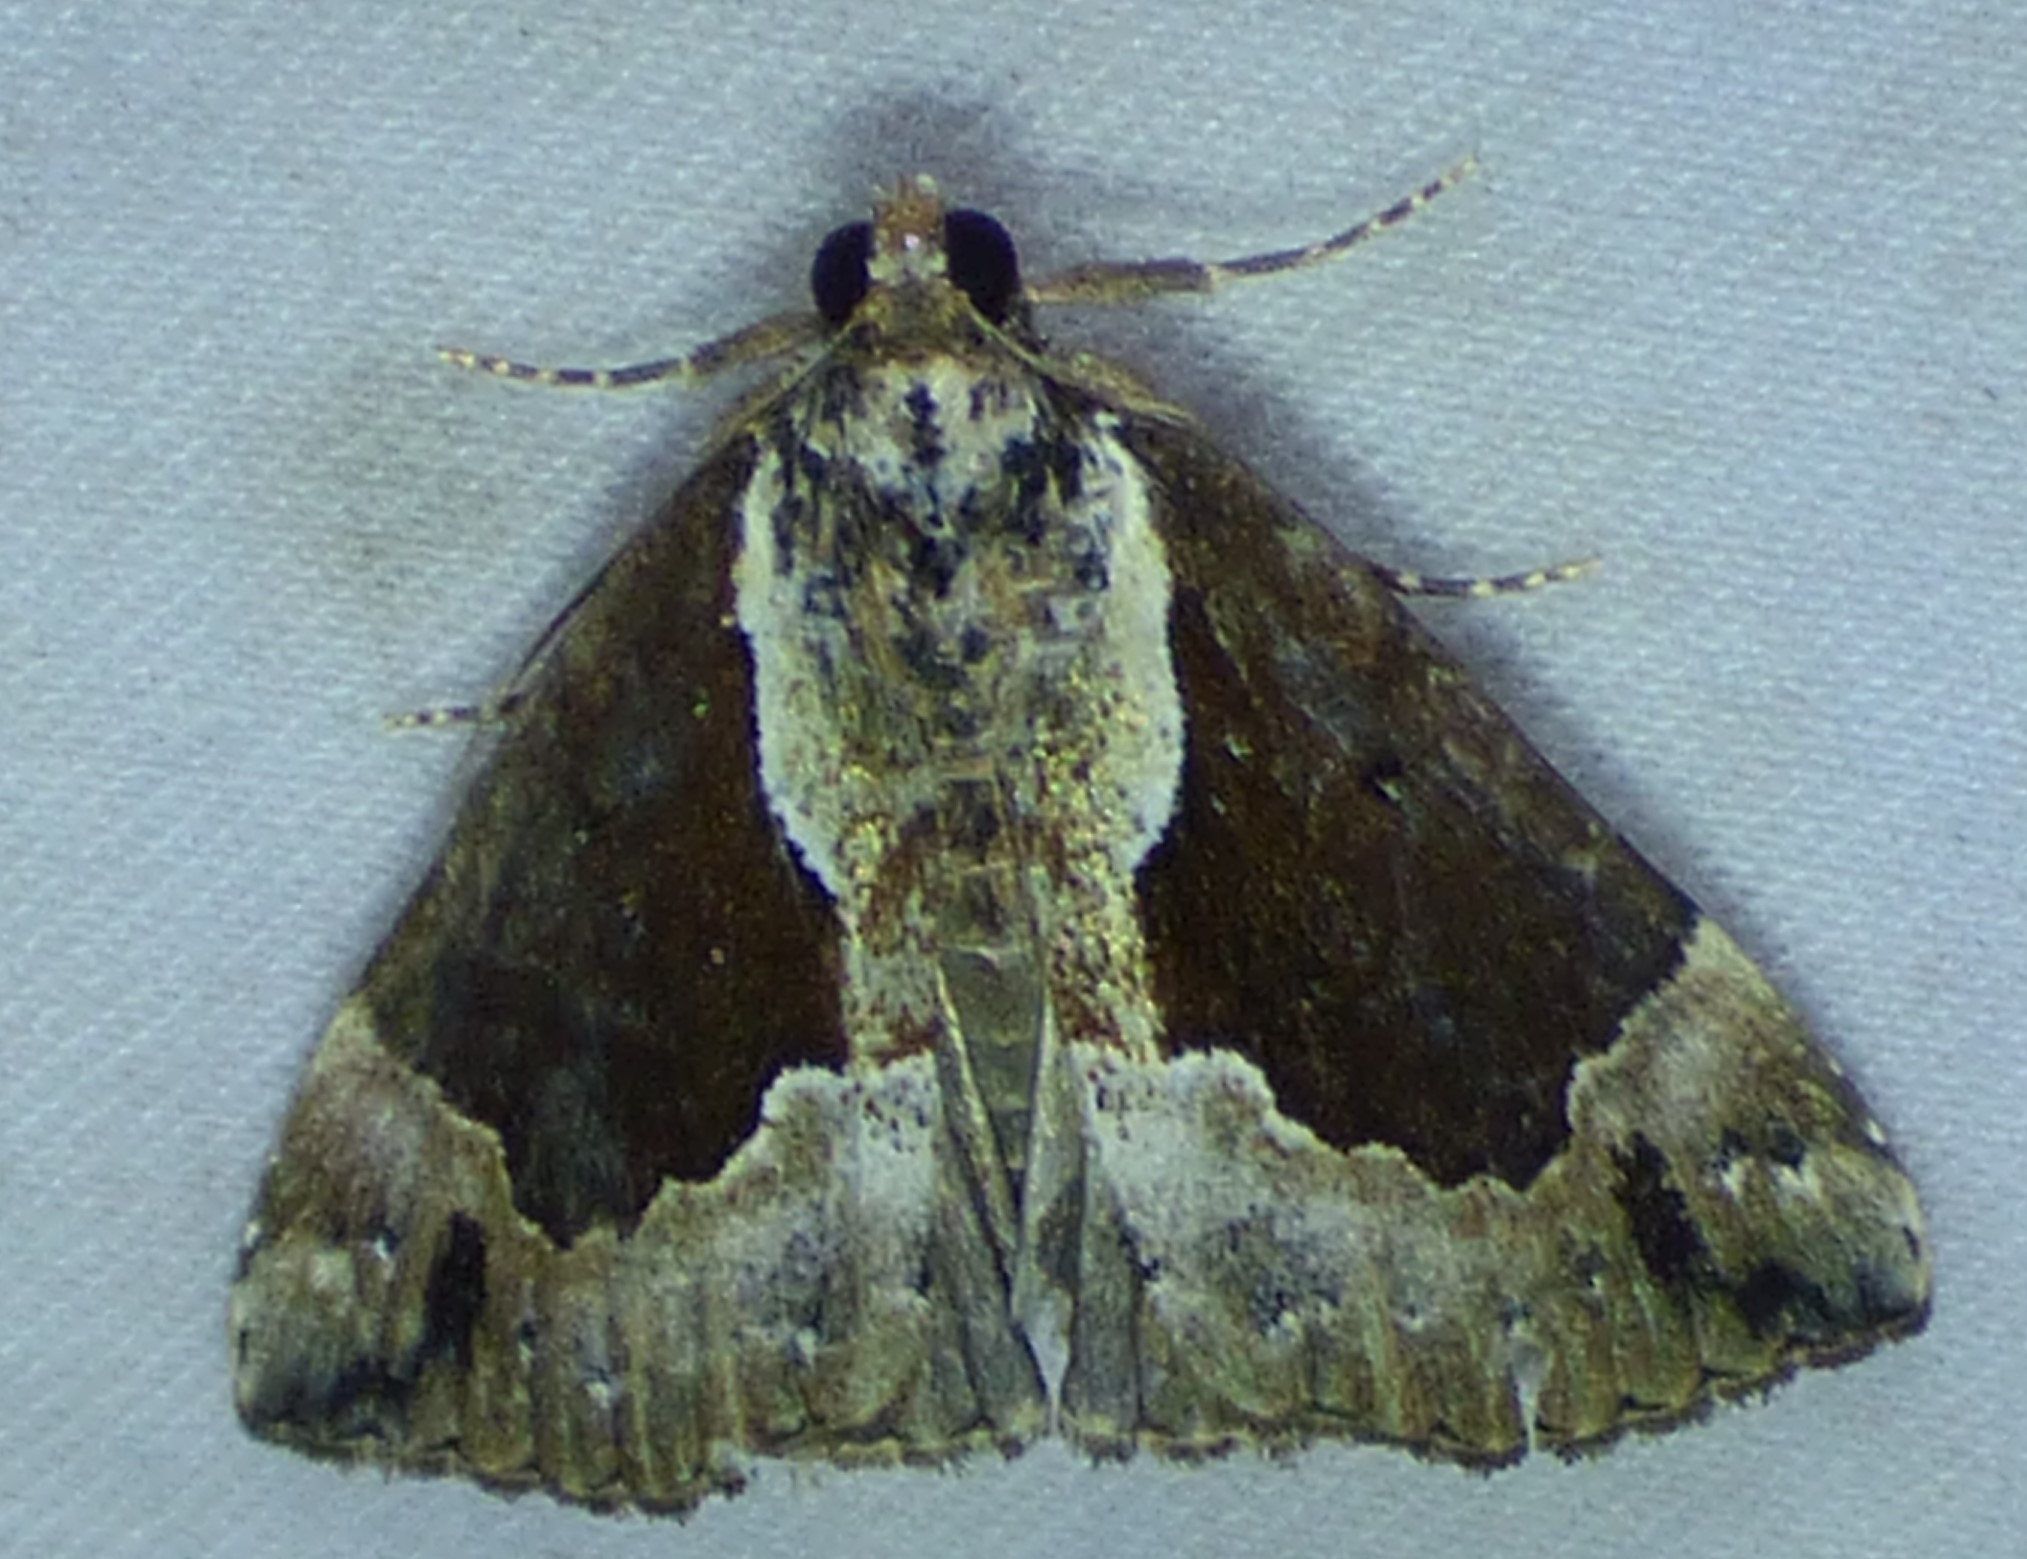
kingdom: Animalia
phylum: Arthropoda
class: Insecta
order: Lepidoptera
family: Erebidae
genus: Hypena
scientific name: Hypena baltimoralis
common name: Baltimore snout
